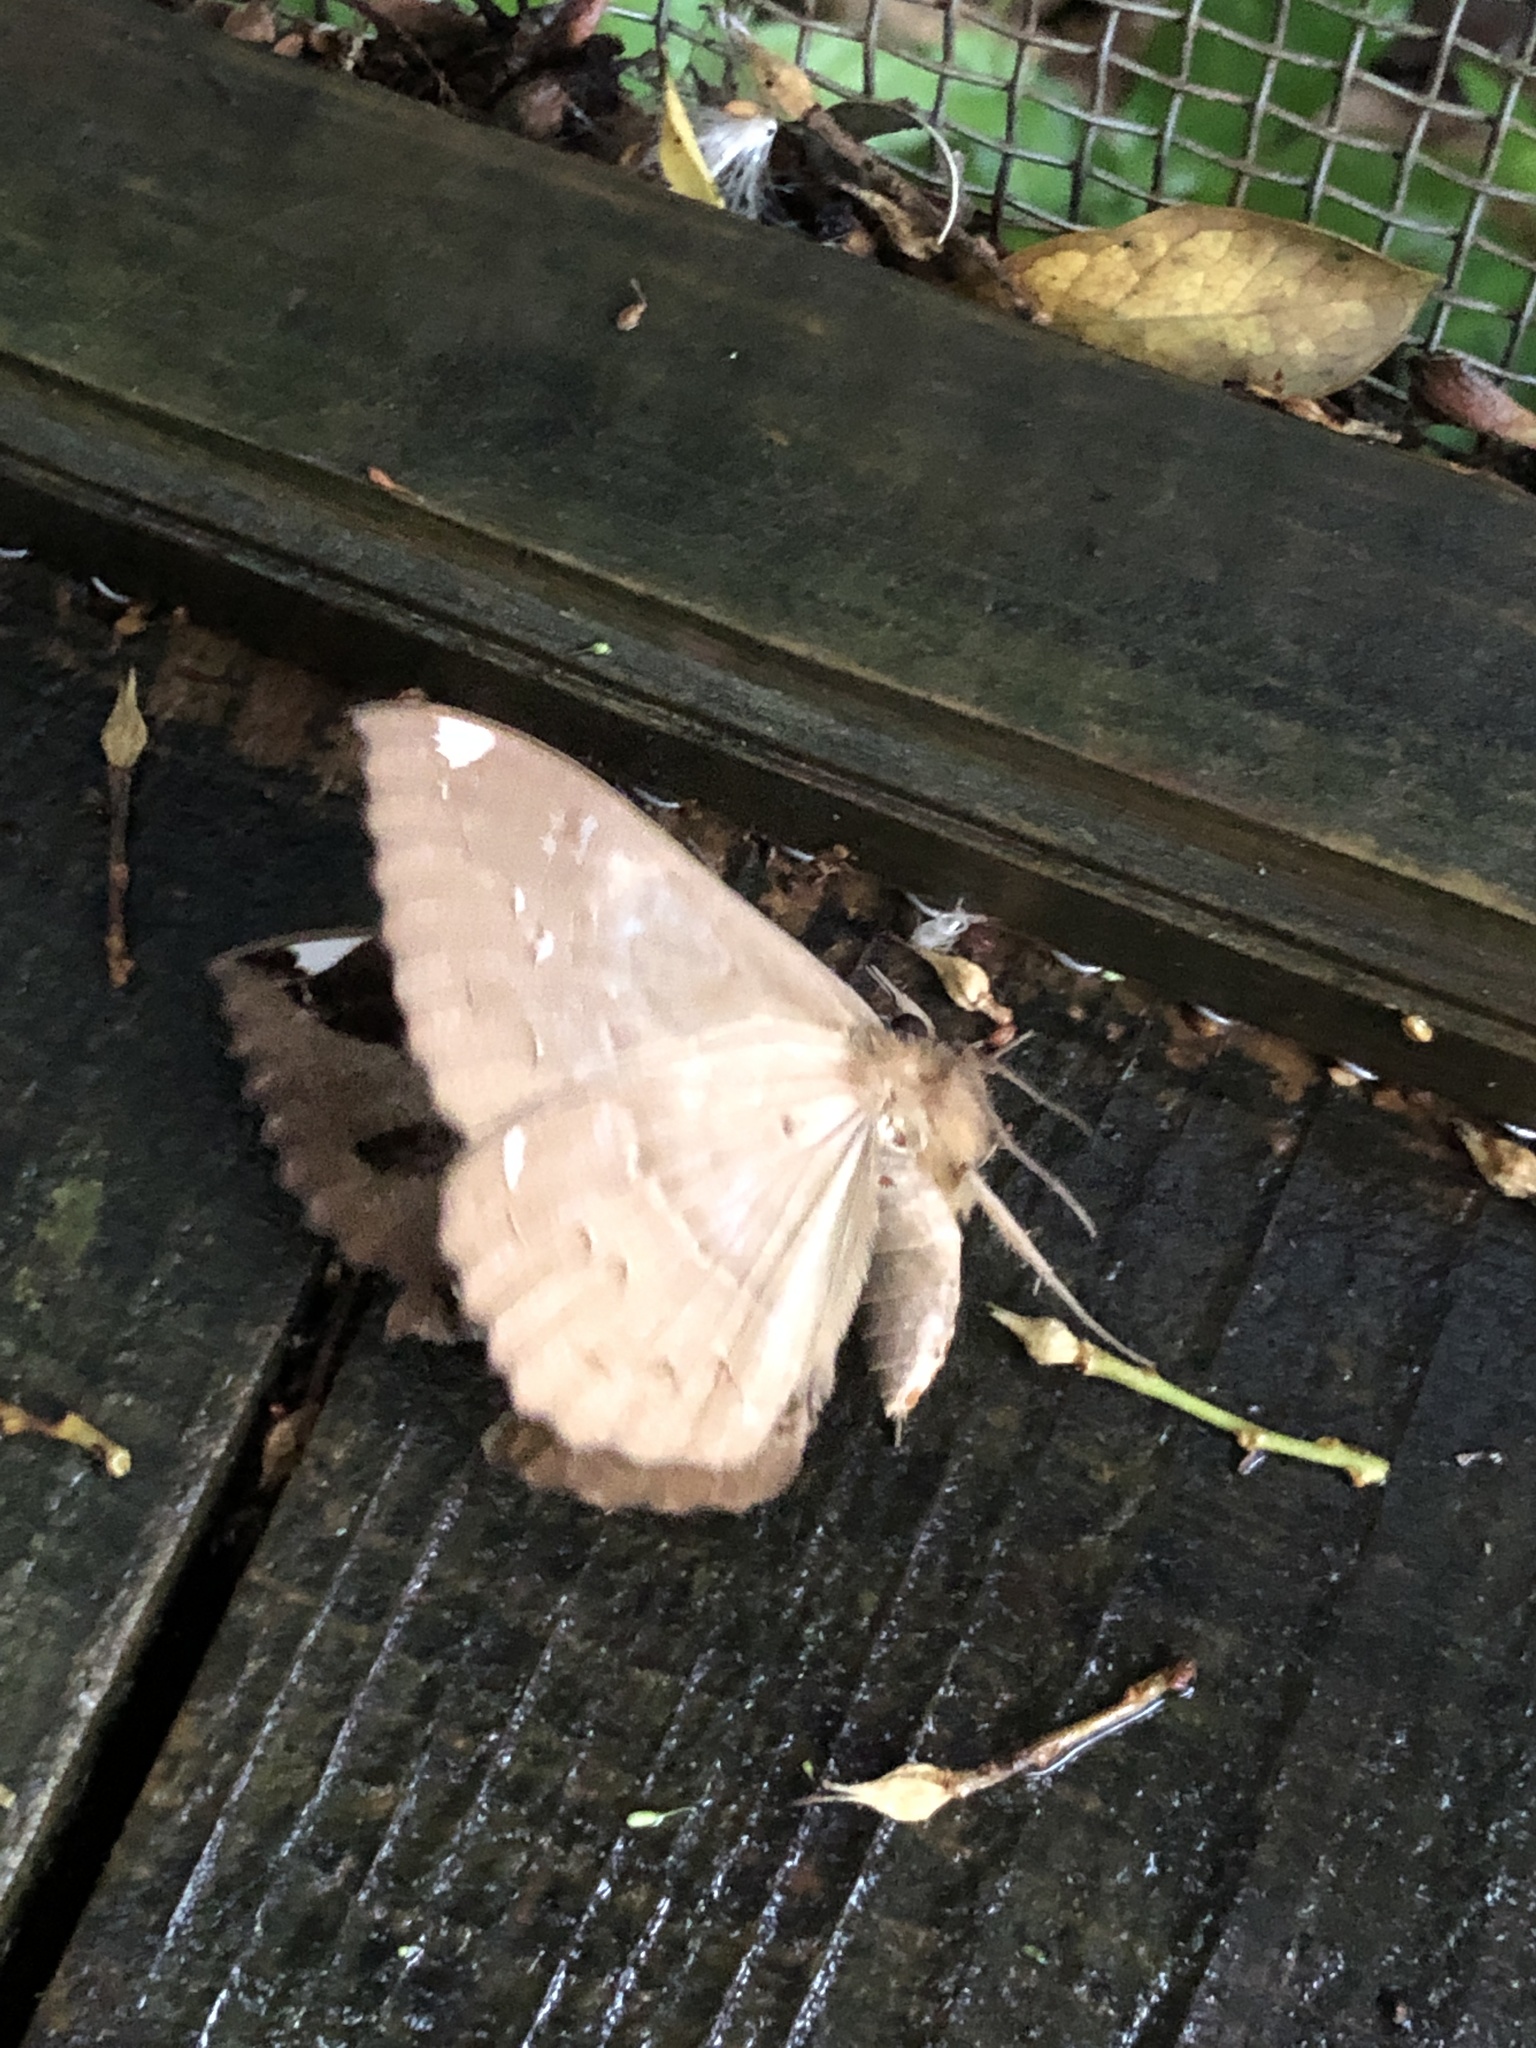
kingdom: Animalia
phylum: Arthropoda
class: Insecta
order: Lepidoptera
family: Erebidae
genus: Erebus
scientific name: Erebus ephesperis
